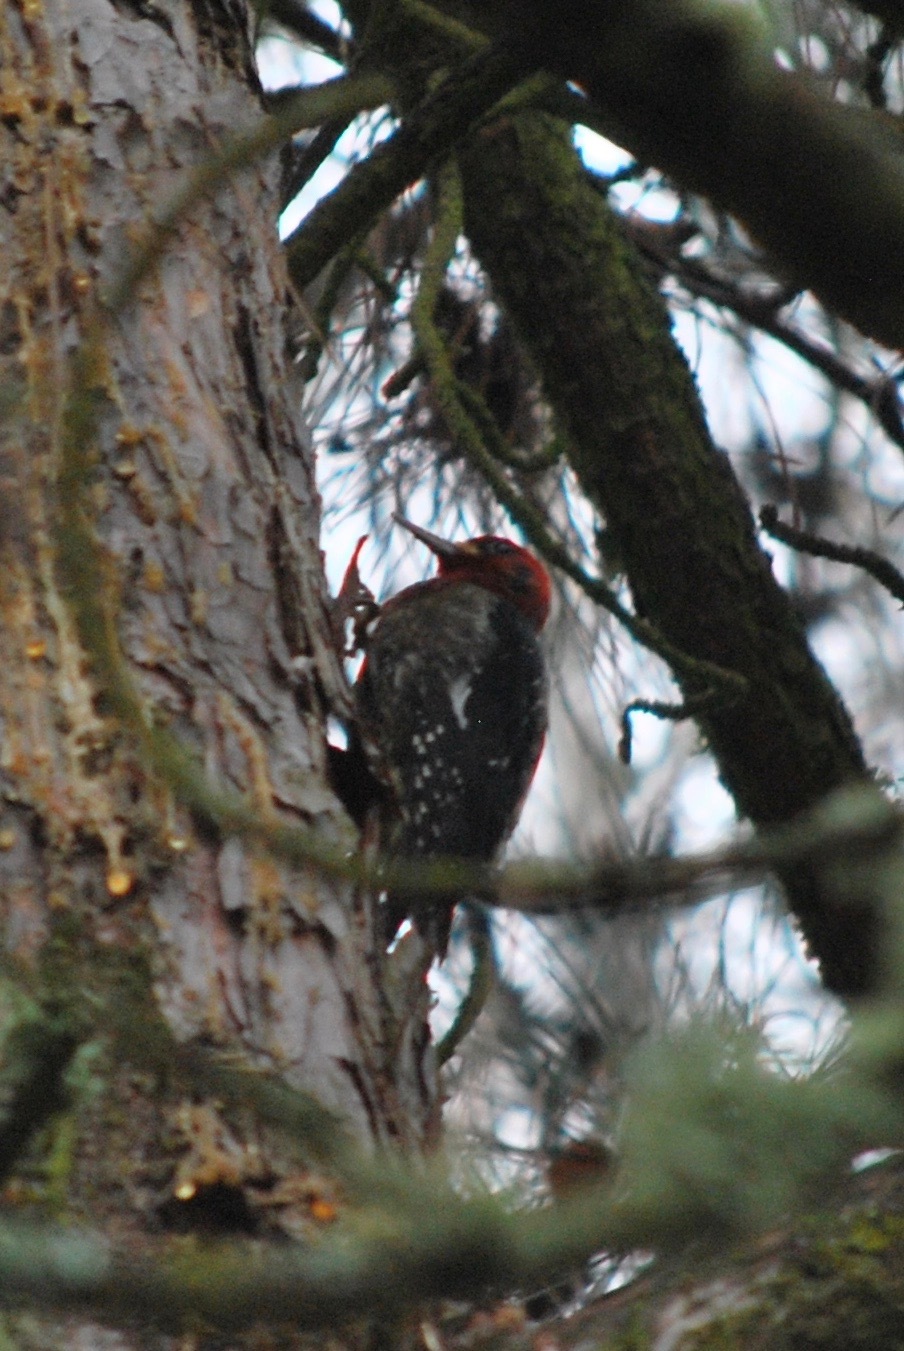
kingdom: Animalia
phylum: Chordata
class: Aves
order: Piciformes
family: Picidae
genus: Sphyrapicus
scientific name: Sphyrapicus ruber
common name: Red-breasted sapsucker
